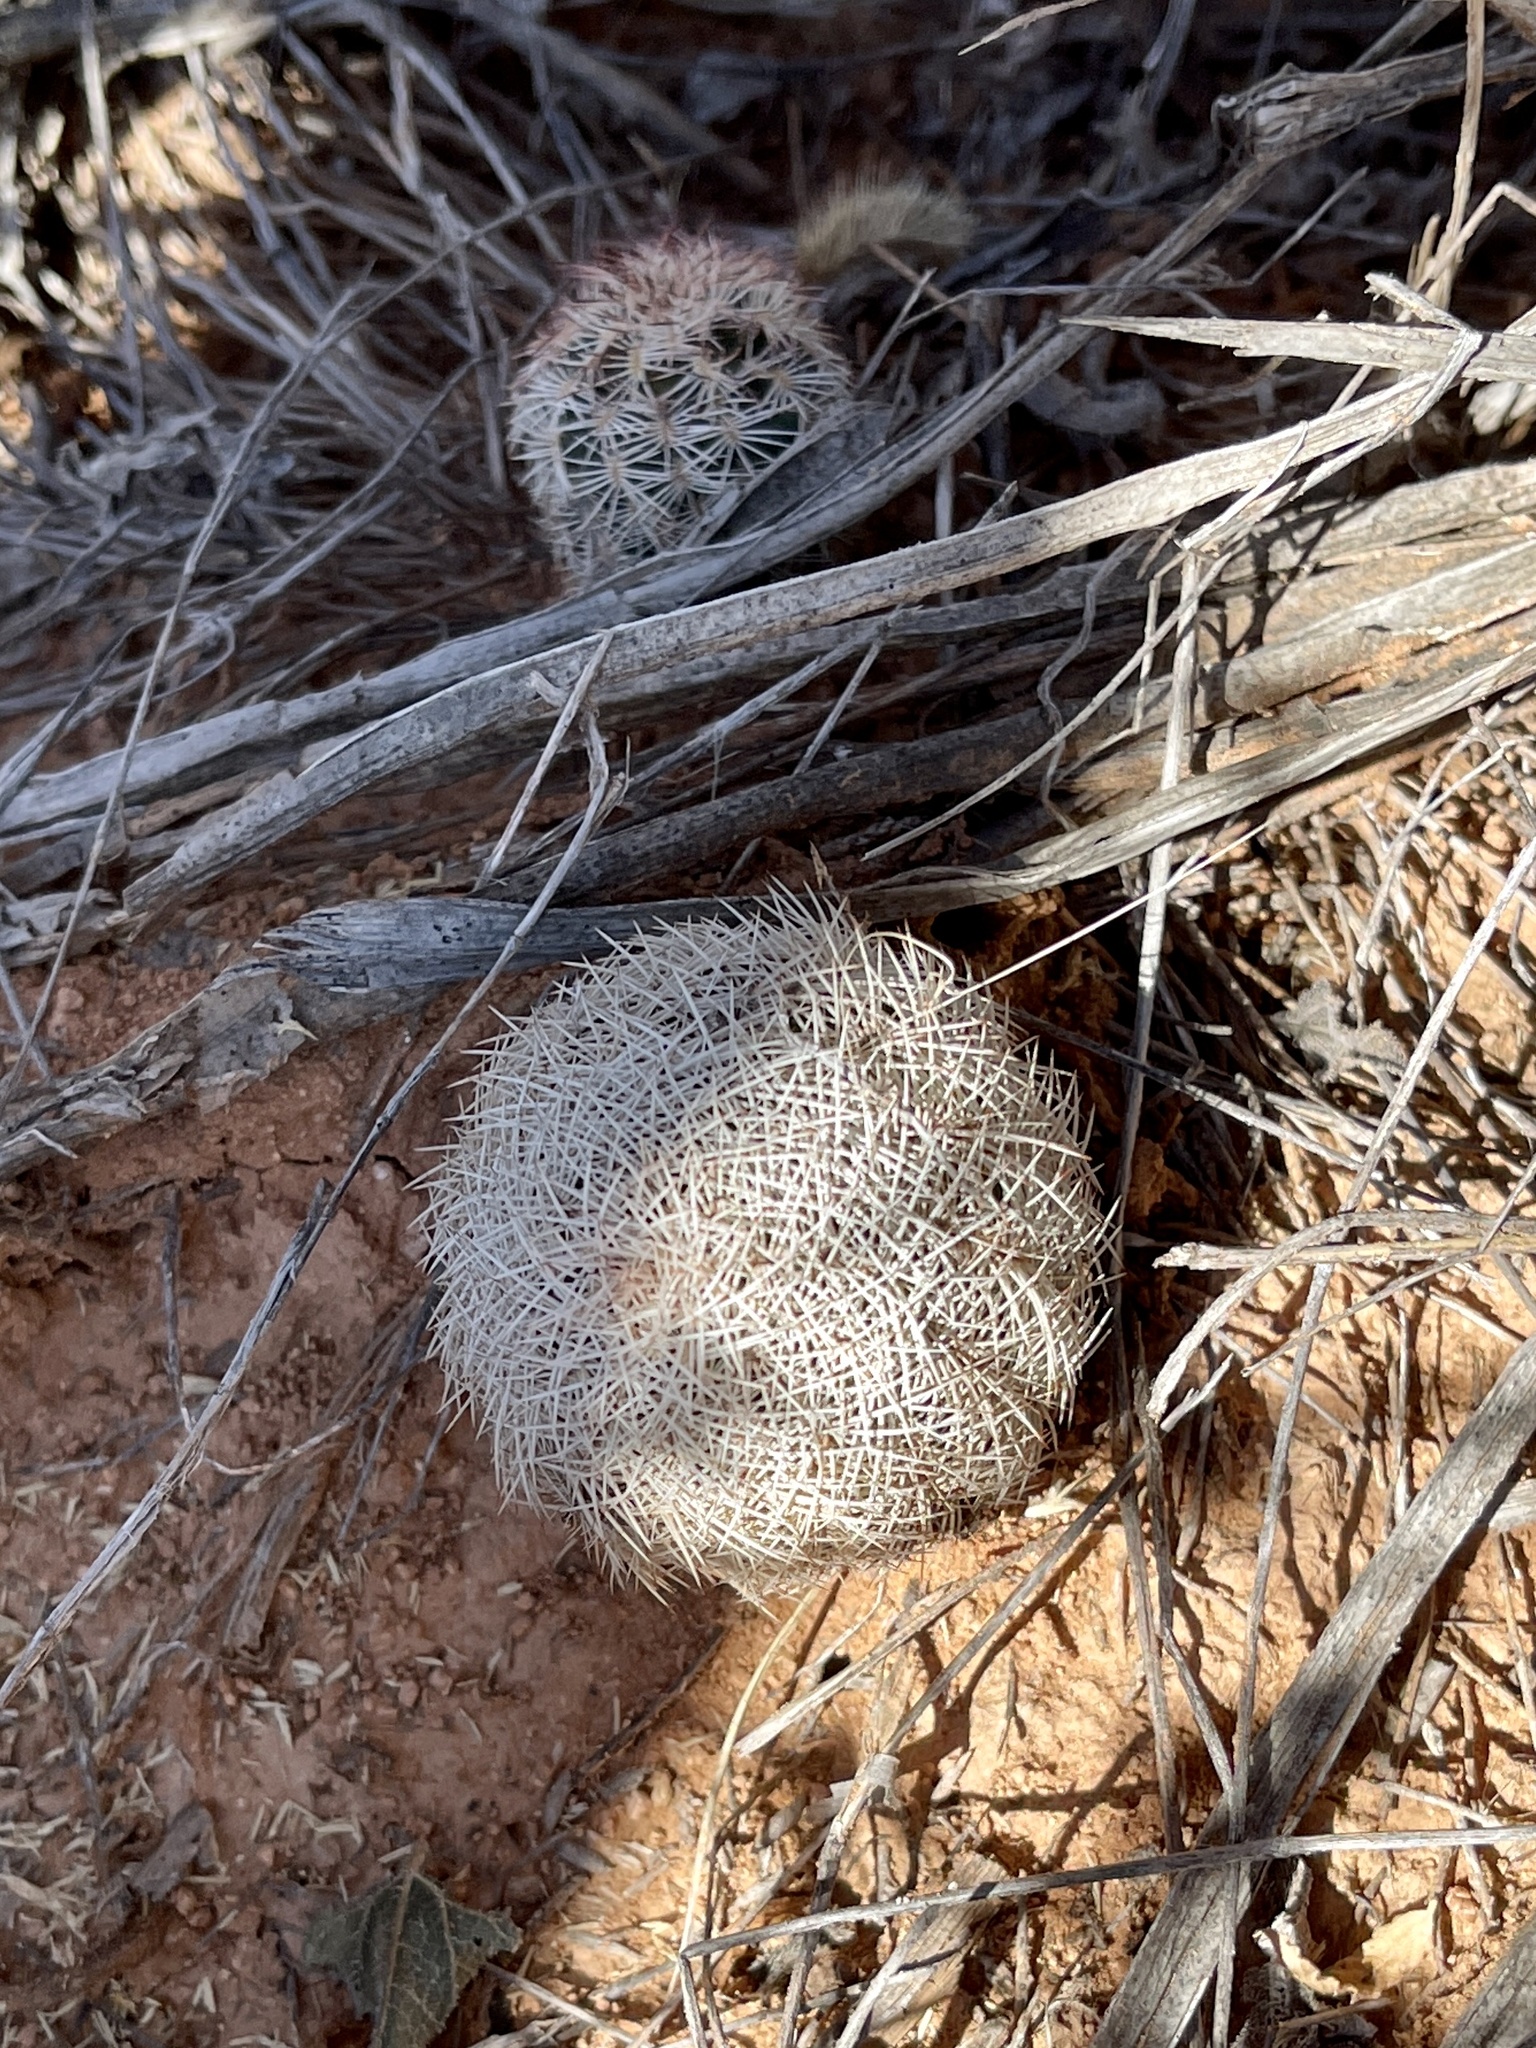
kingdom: Plantae
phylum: Tracheophyta
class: Magnoliopsida
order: Caryophyllales
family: Cactaceae
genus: Echinocereus
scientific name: Echinocereus reichenbachii
